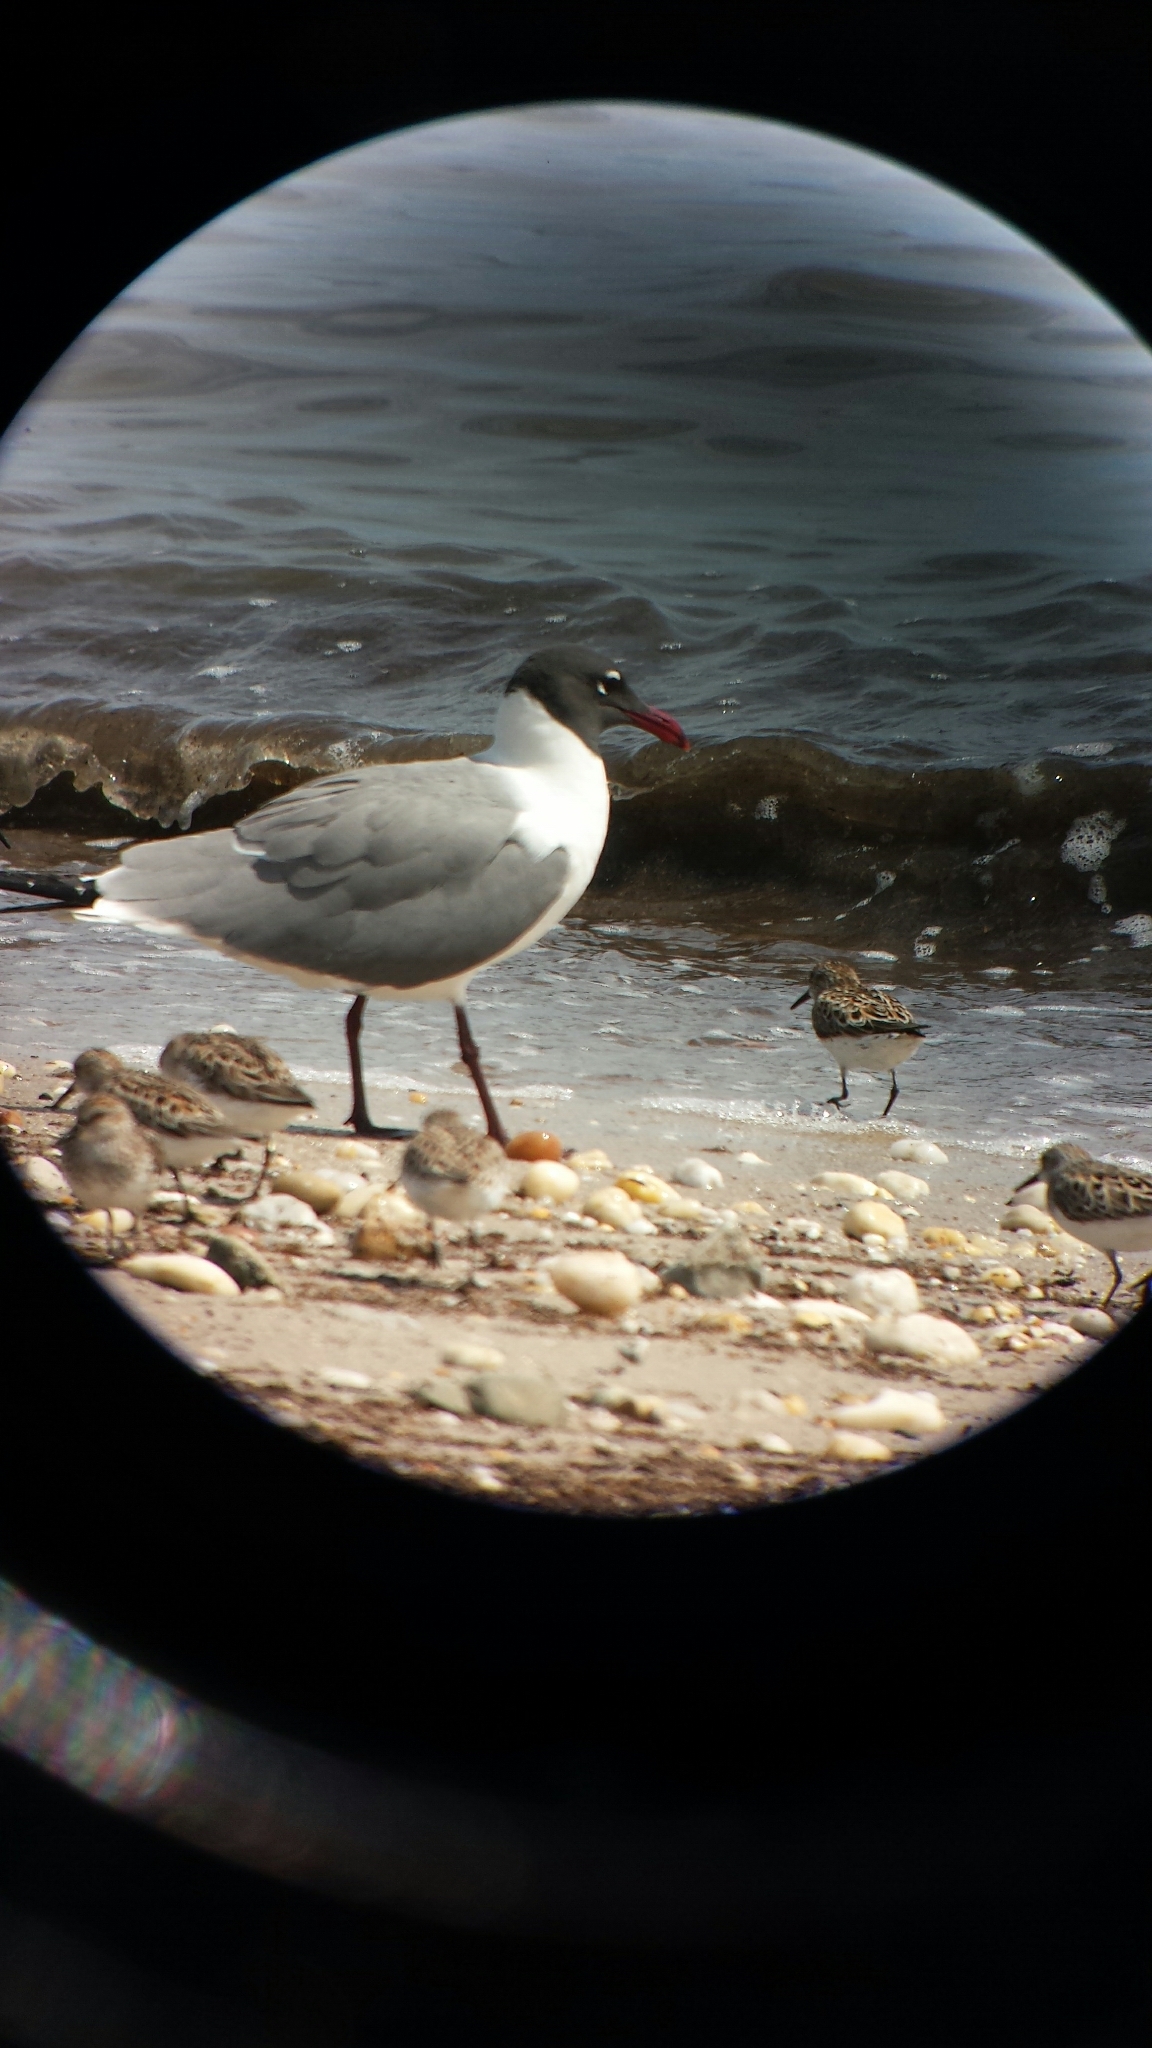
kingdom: Animalia
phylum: Chordata
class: Aves
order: Charadriiformes
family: Laridae
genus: Leucophaeus
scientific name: Leucophaeus atricilla
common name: Laughing gull
